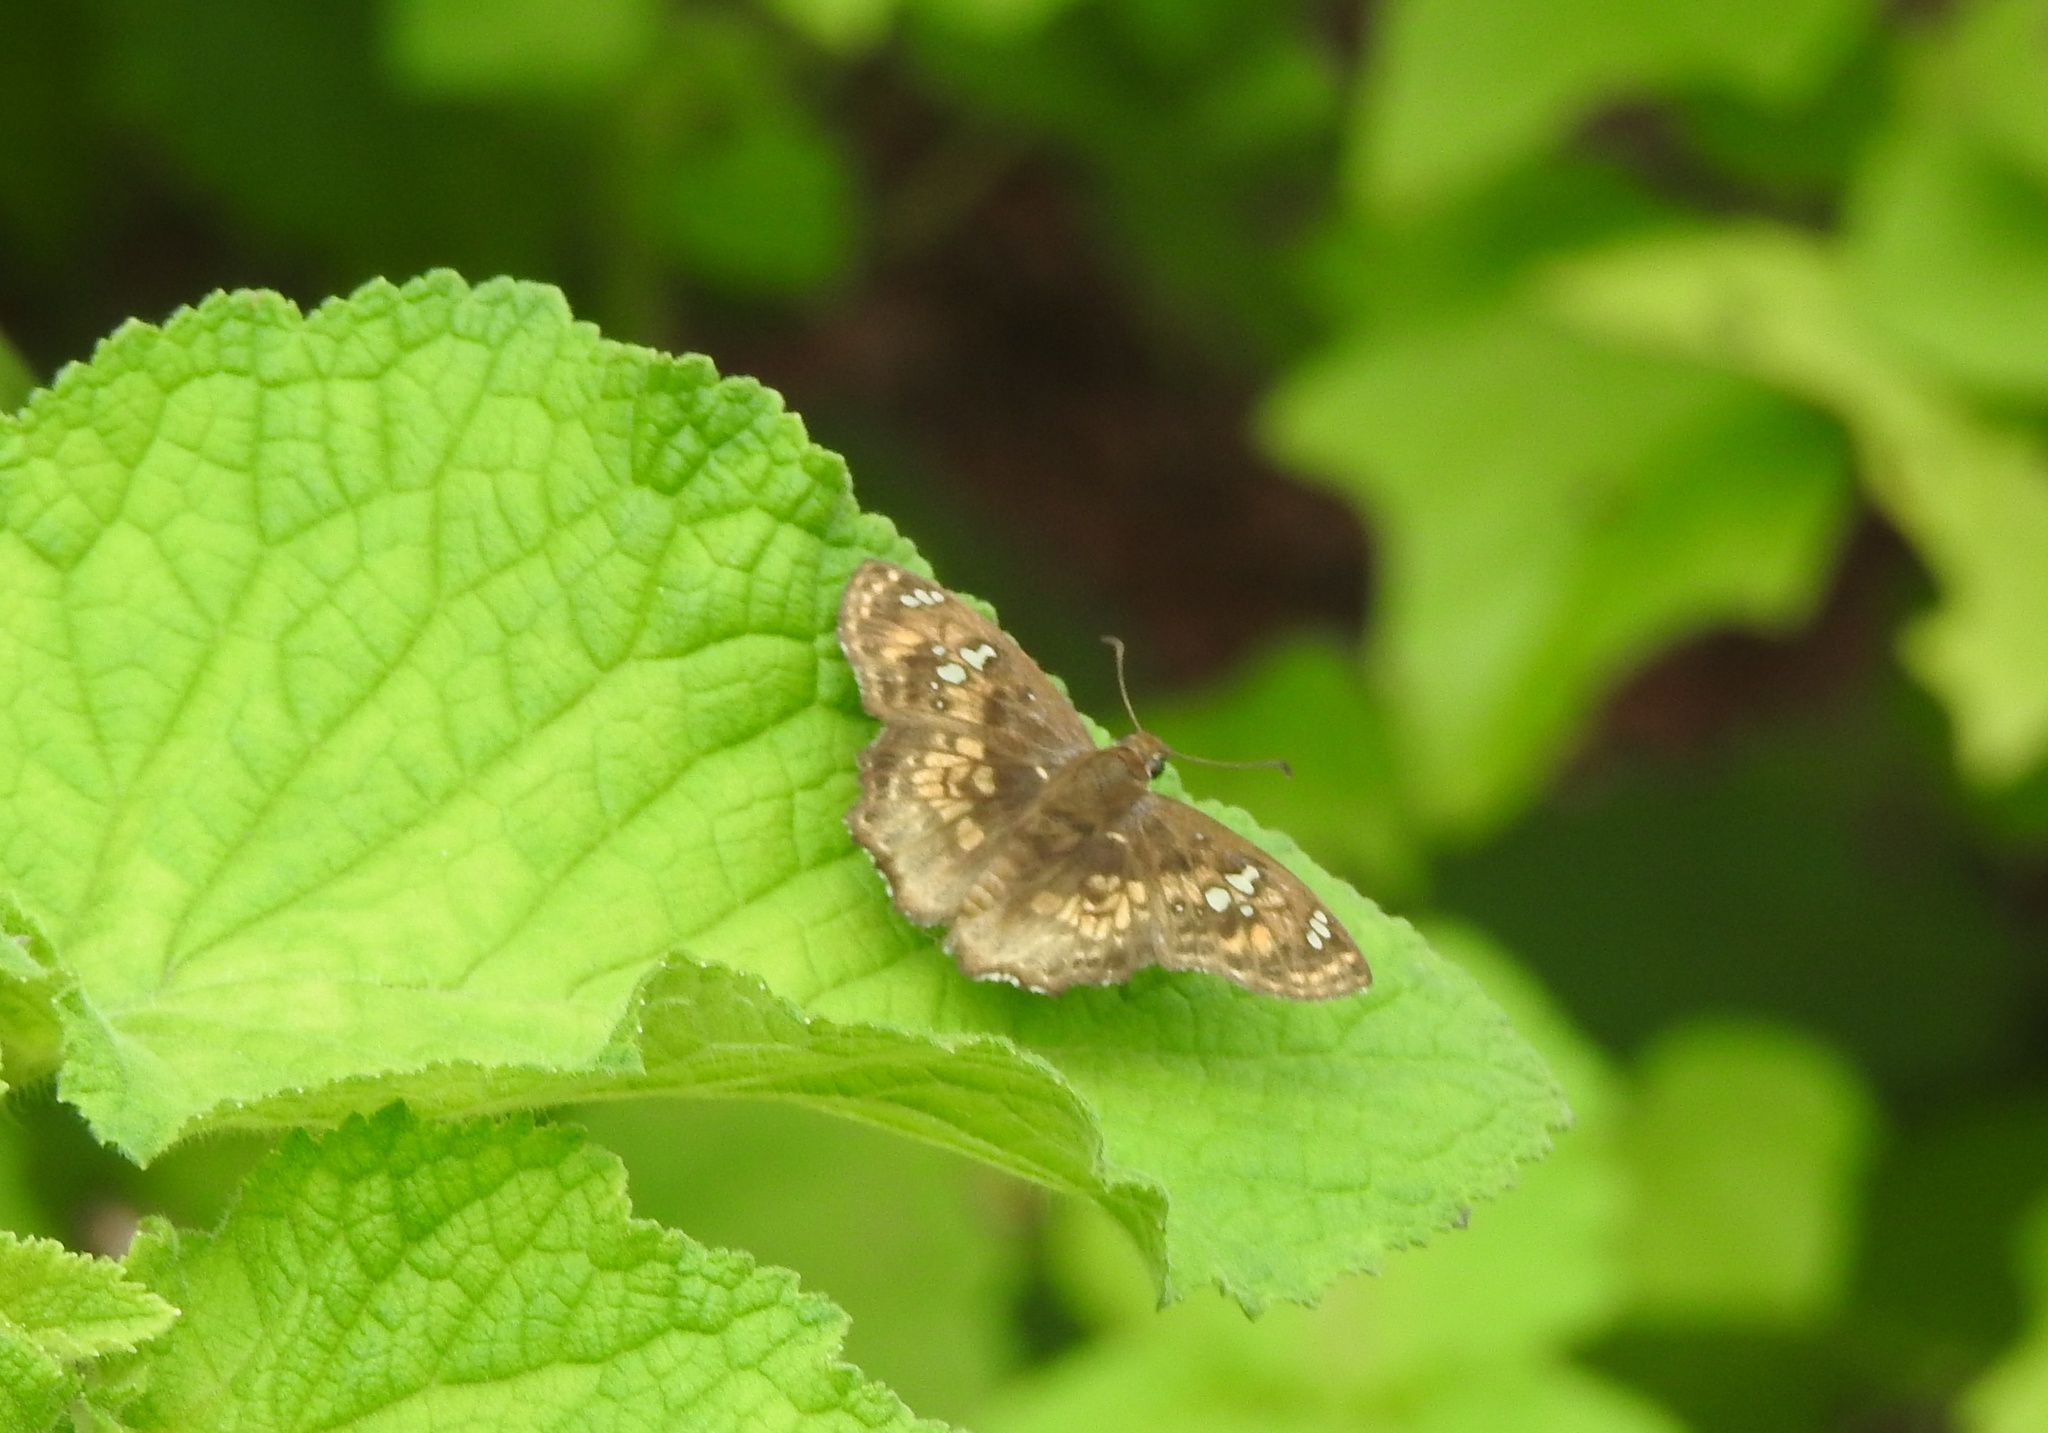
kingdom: Animalia
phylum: Arthropoda
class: Insecta
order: Lepidoptera
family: Hesperiidae
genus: Caprona
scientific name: Caprona ransonnettii
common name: Golden angle
